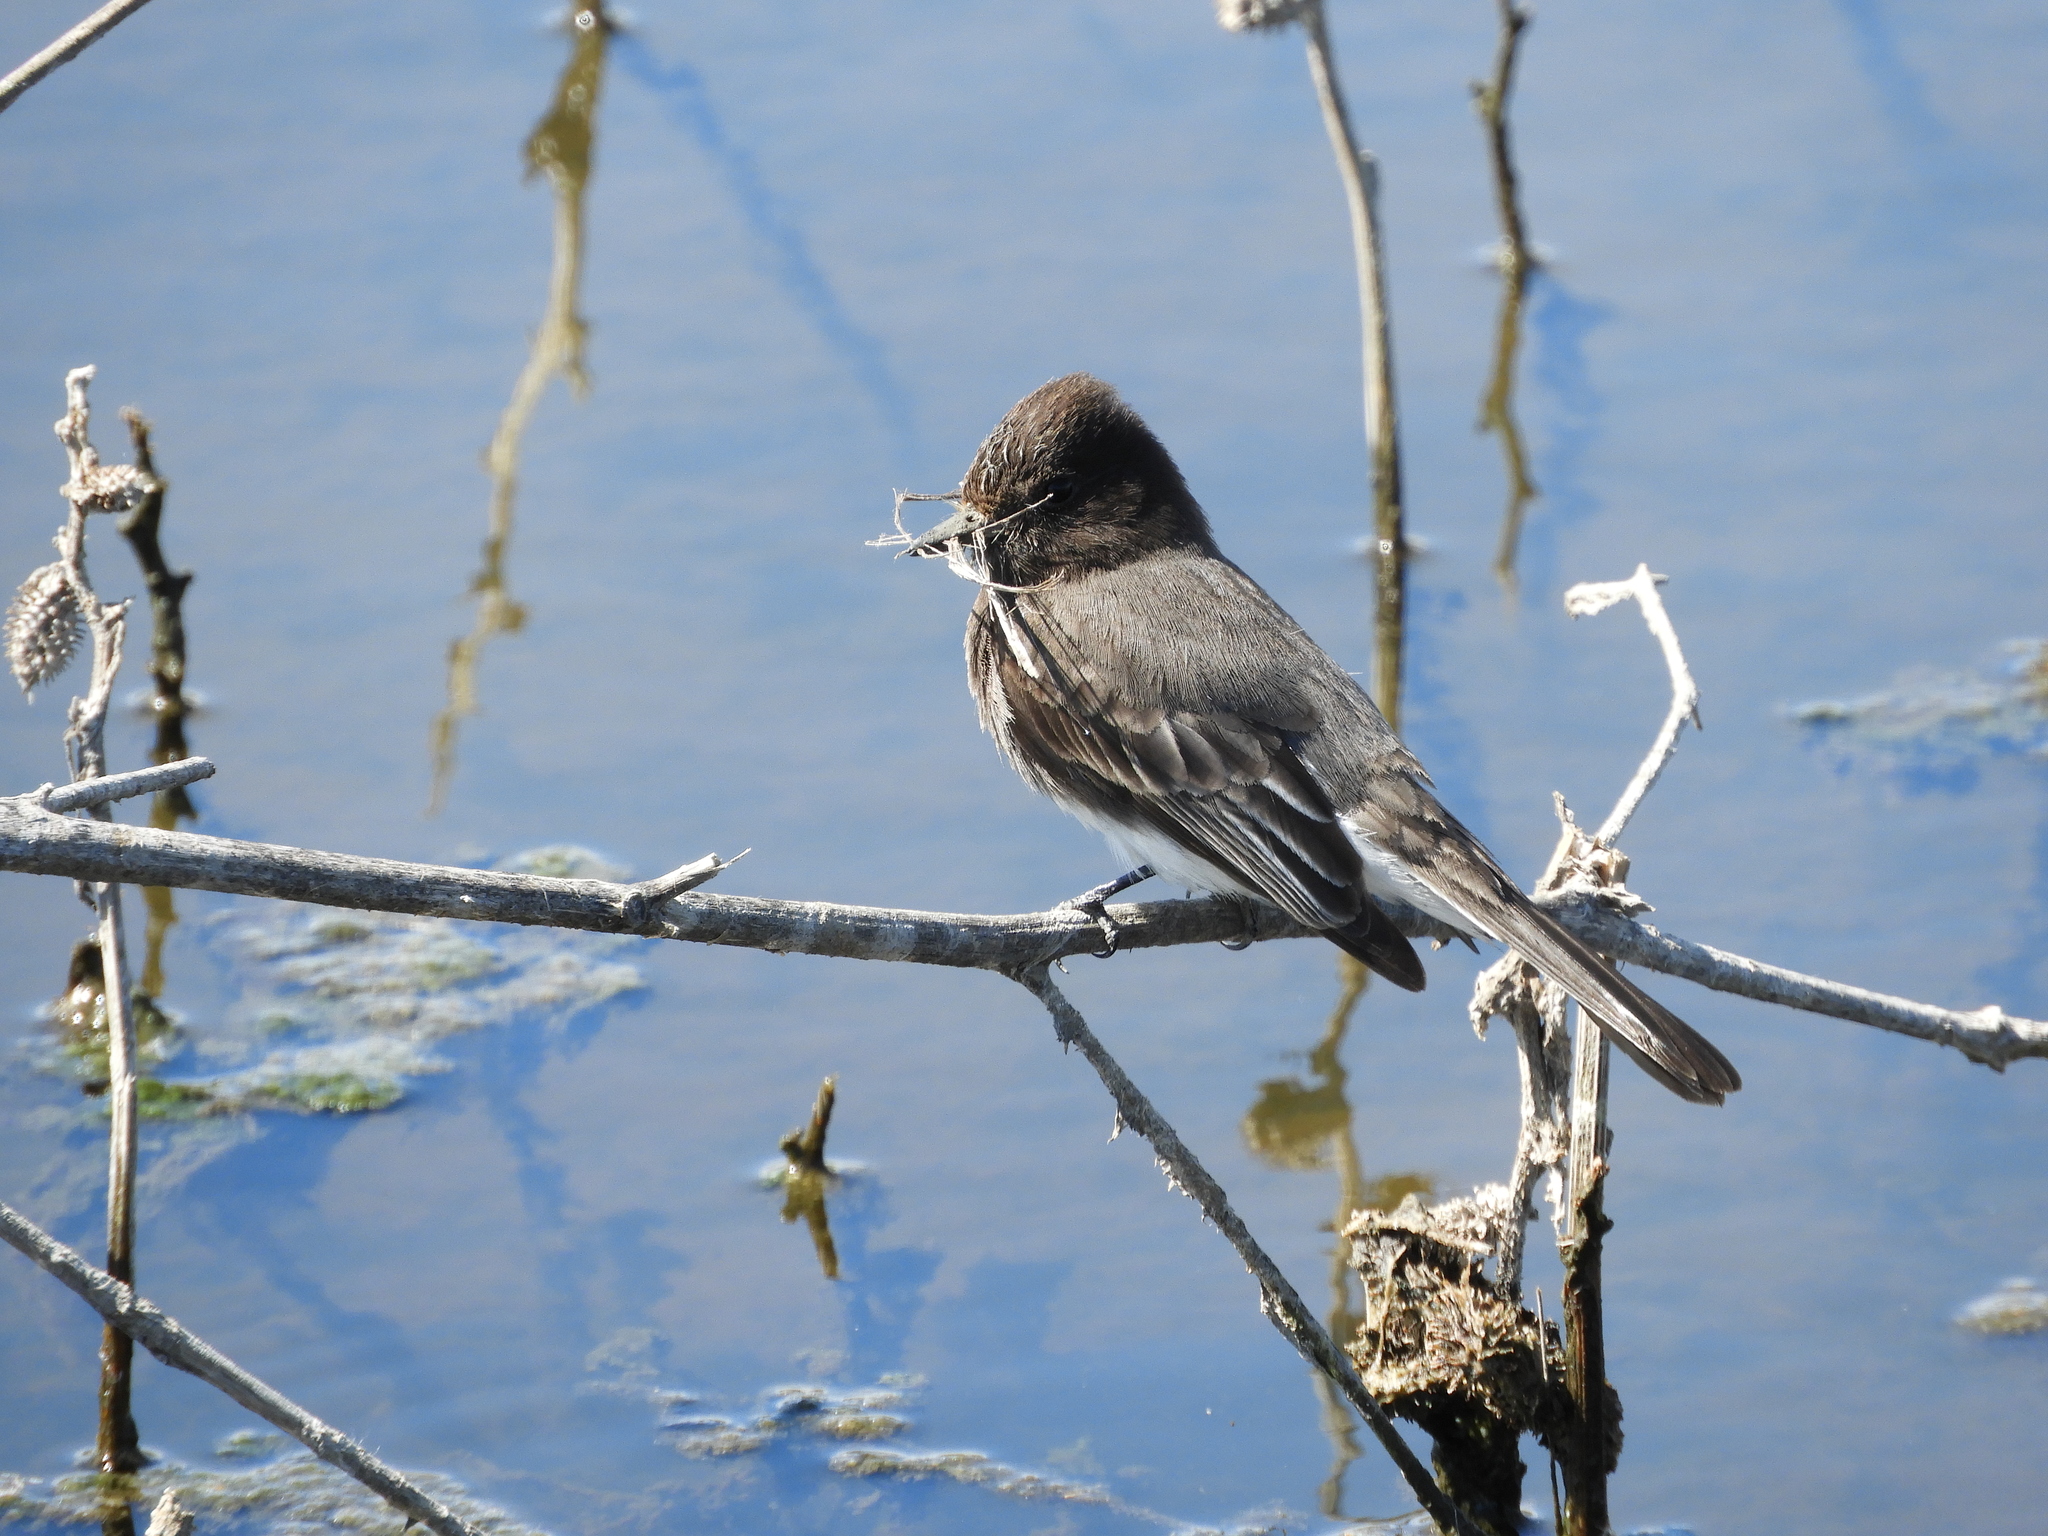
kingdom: Animalia
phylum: Chordata
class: Aves
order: Passeriformes
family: Tyrannidae
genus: Sayornis
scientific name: Sayornis nigricans
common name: Black phoebe
